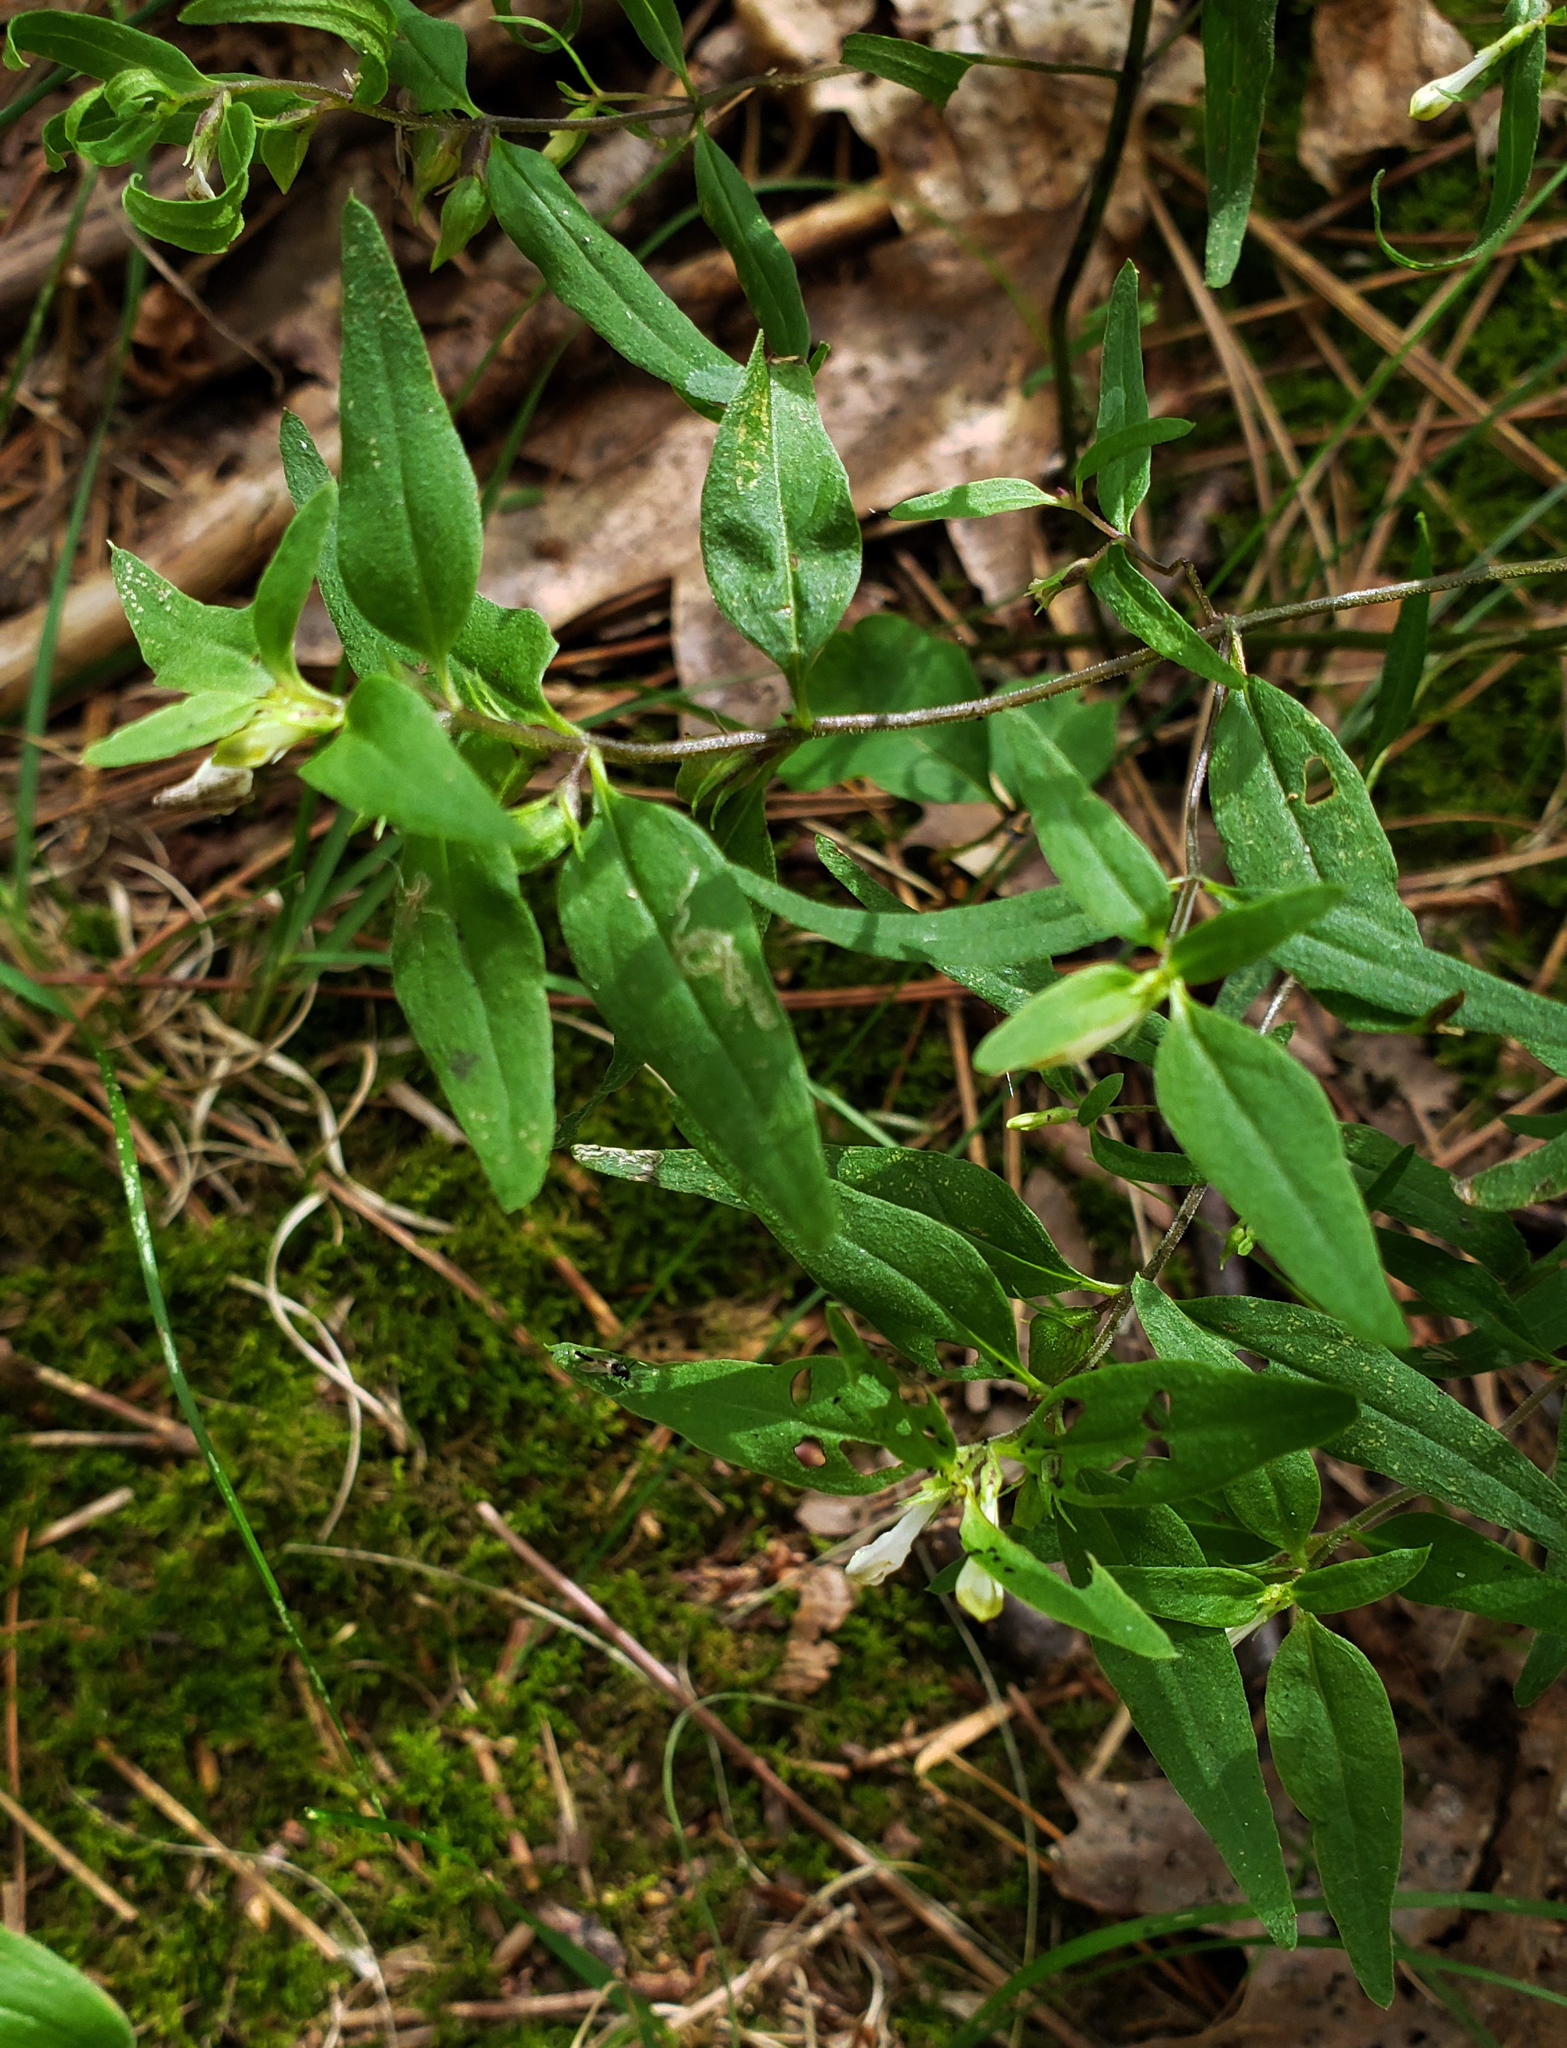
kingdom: Plantae
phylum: Tracheophyta
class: Magnoliopsida
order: Lamiales
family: Orobanchaceae
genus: Melampyrum
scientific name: Melampyrum lineare
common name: American cow-wheat
